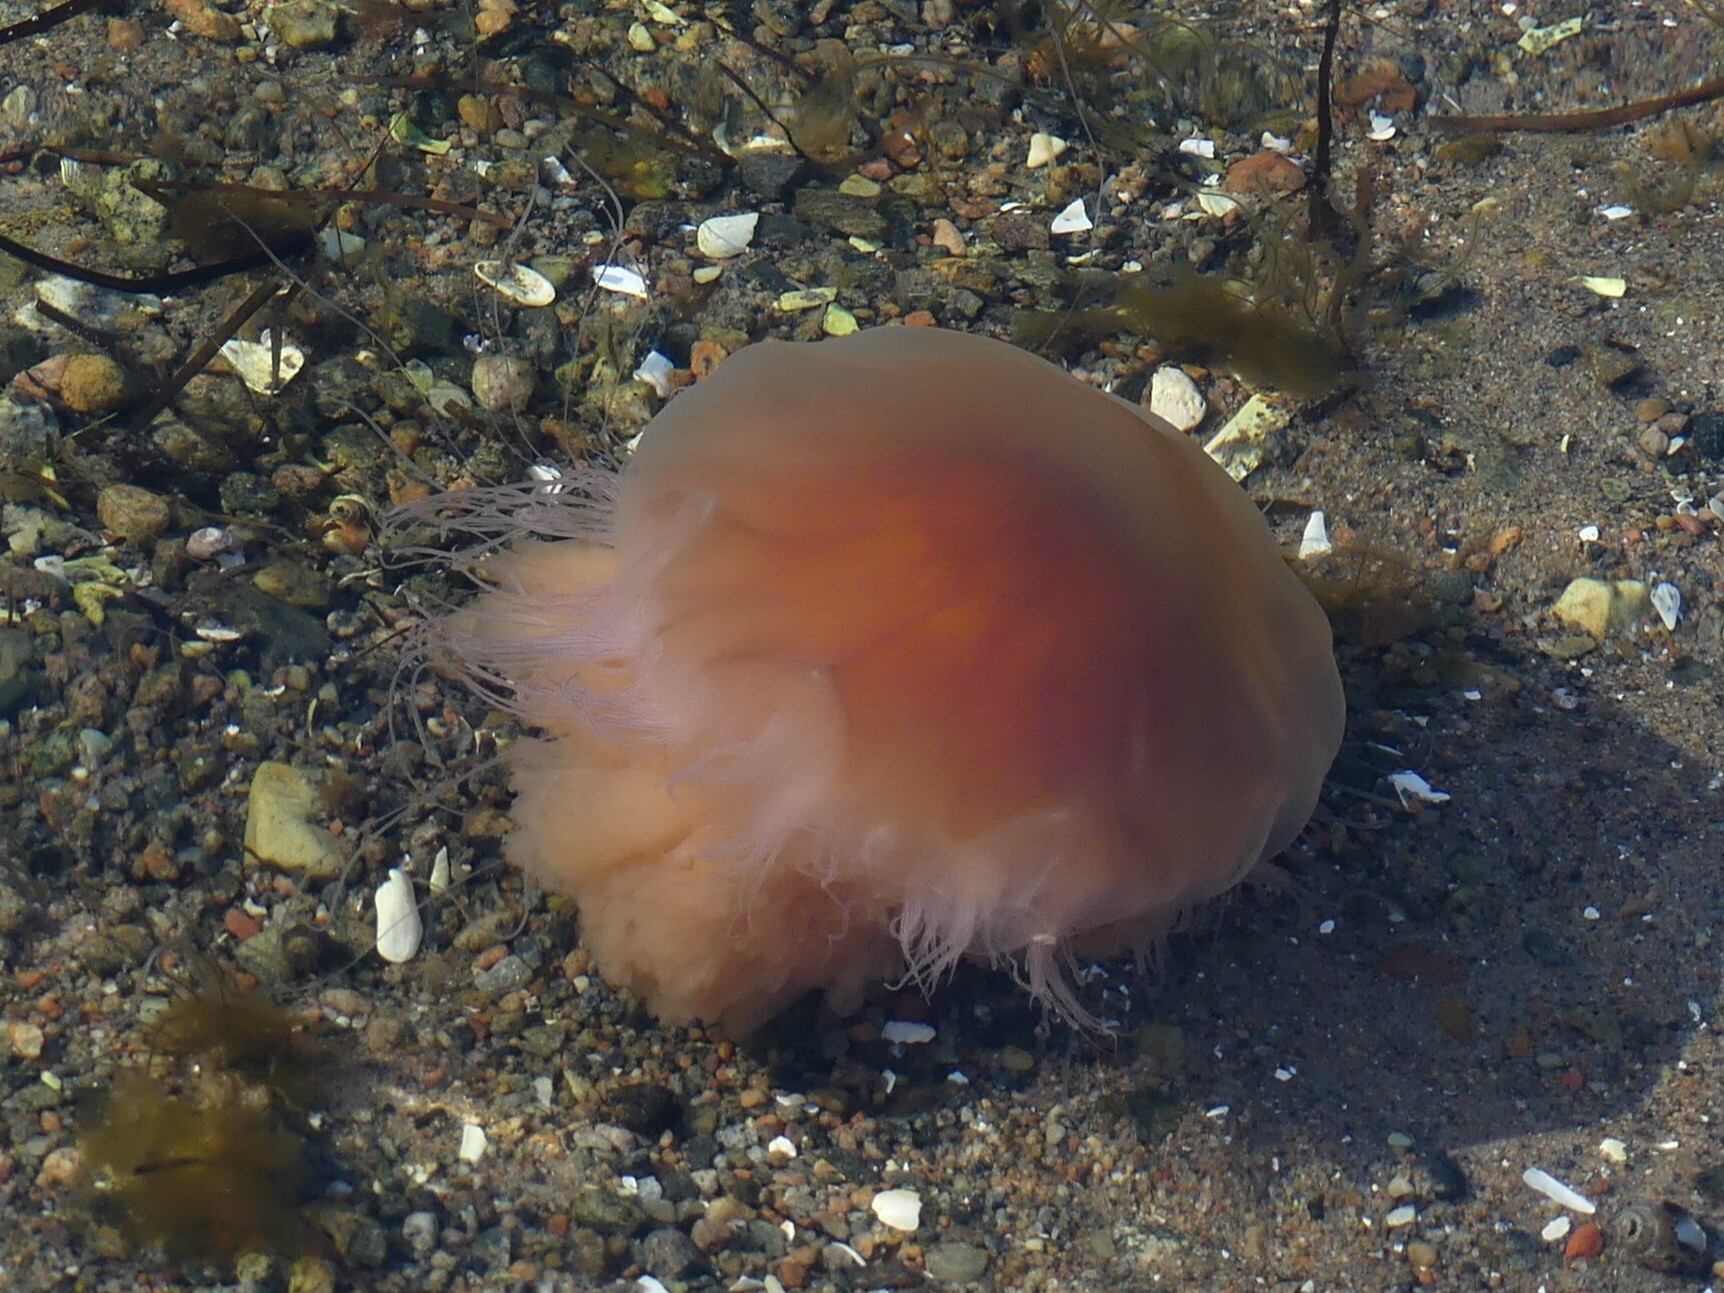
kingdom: Animalia
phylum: Cnidaria
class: Scyphozoa
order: Semaeostomeae
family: Cyaneidae
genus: Cyanea
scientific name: Cyanea capillata
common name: Lion's mane jellyfish
